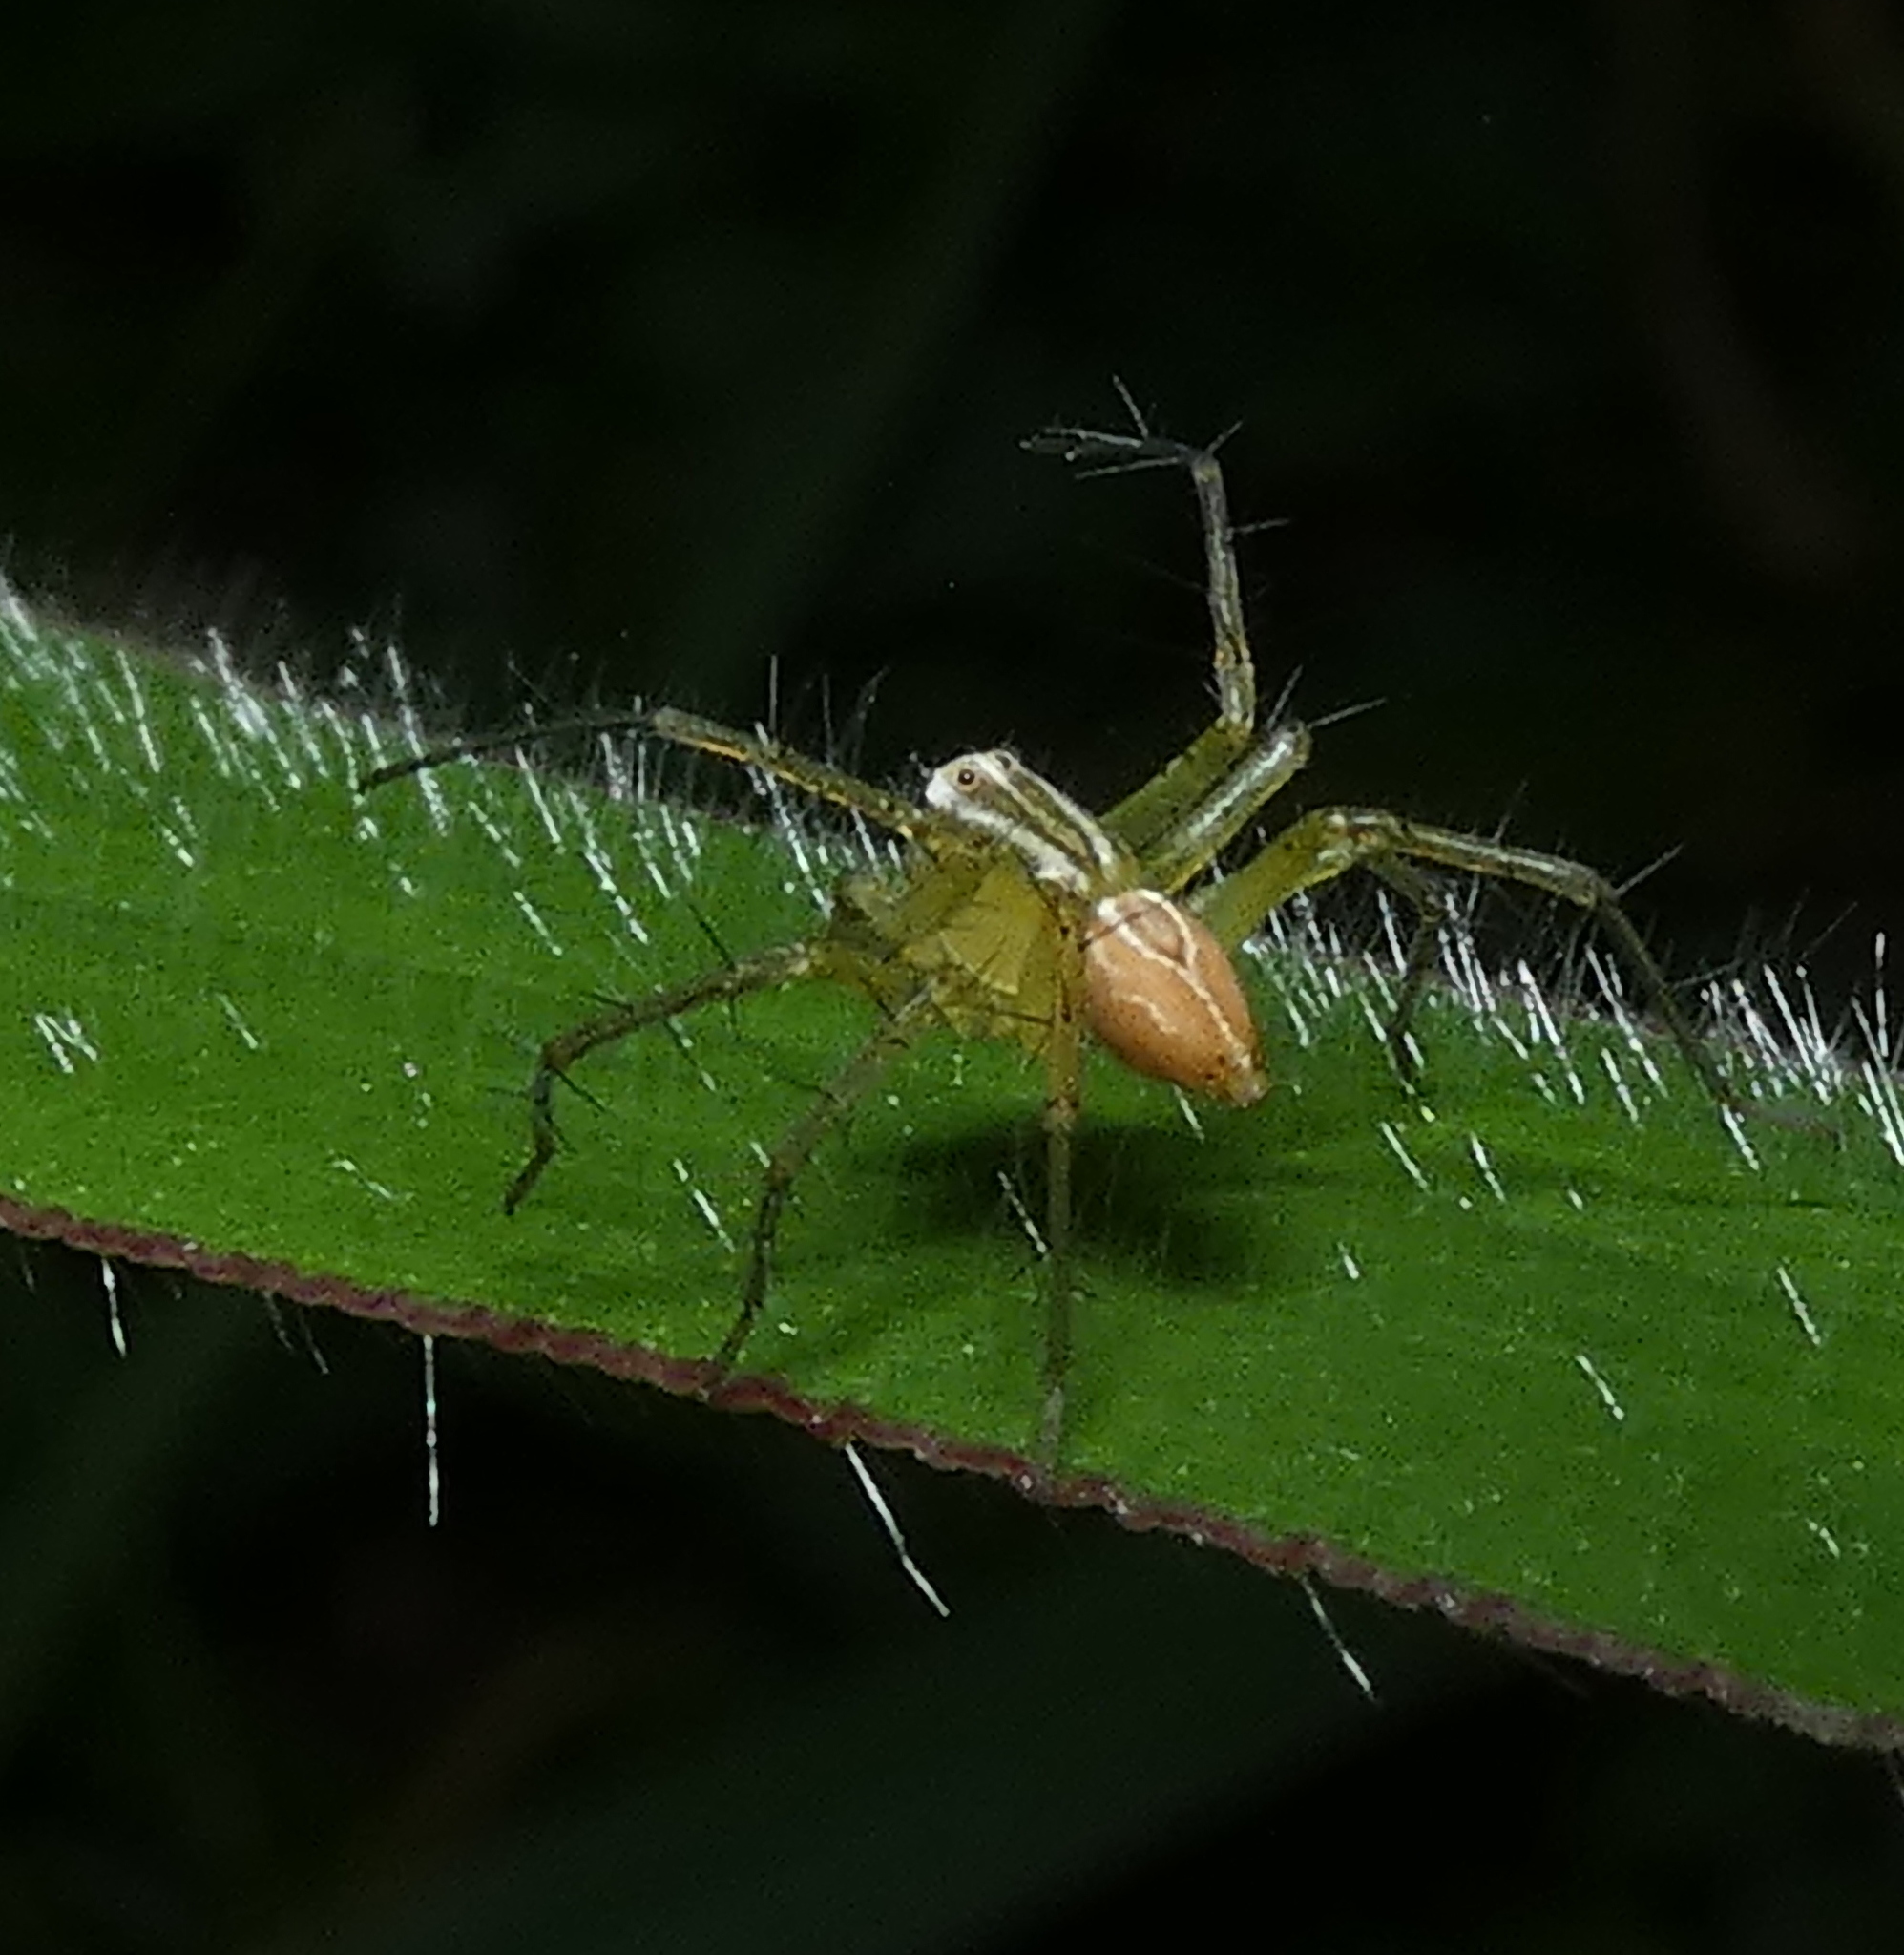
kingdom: Animalia
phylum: Arthropoda
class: Arachnida
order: Araneae
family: Oxyopidae
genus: Oxyopes
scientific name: Oxyopes salticus
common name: Lynx spiders
